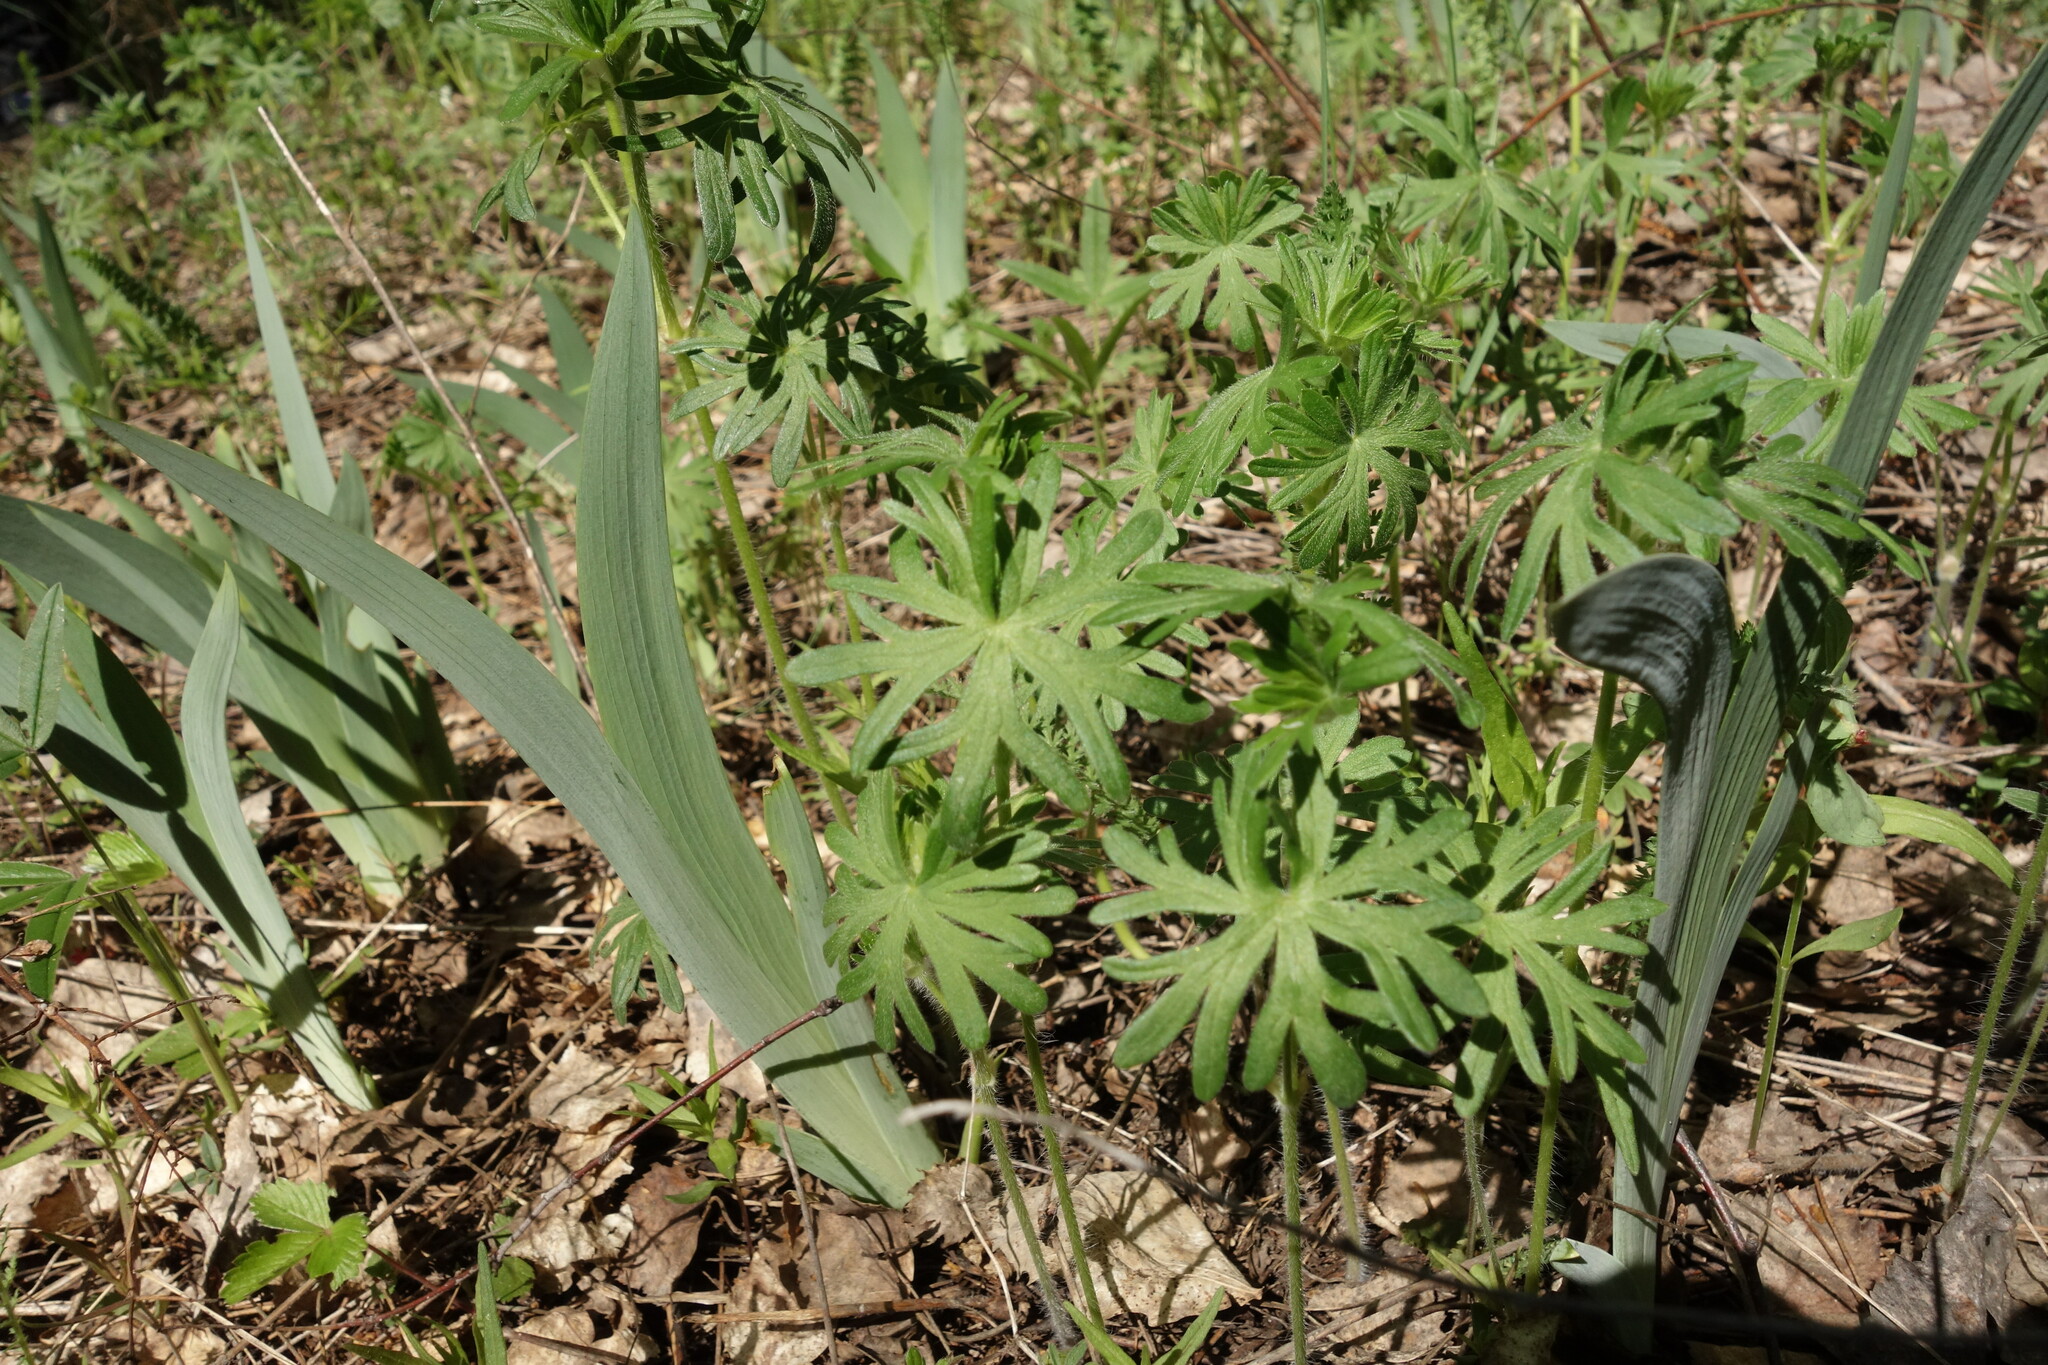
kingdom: Plantae
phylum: Tracheophyta
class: Magnoliopsida
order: Geraniales
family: Geraniaceae
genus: Geranium
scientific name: Geranium sanguineum
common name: Bloody crane's-bill
